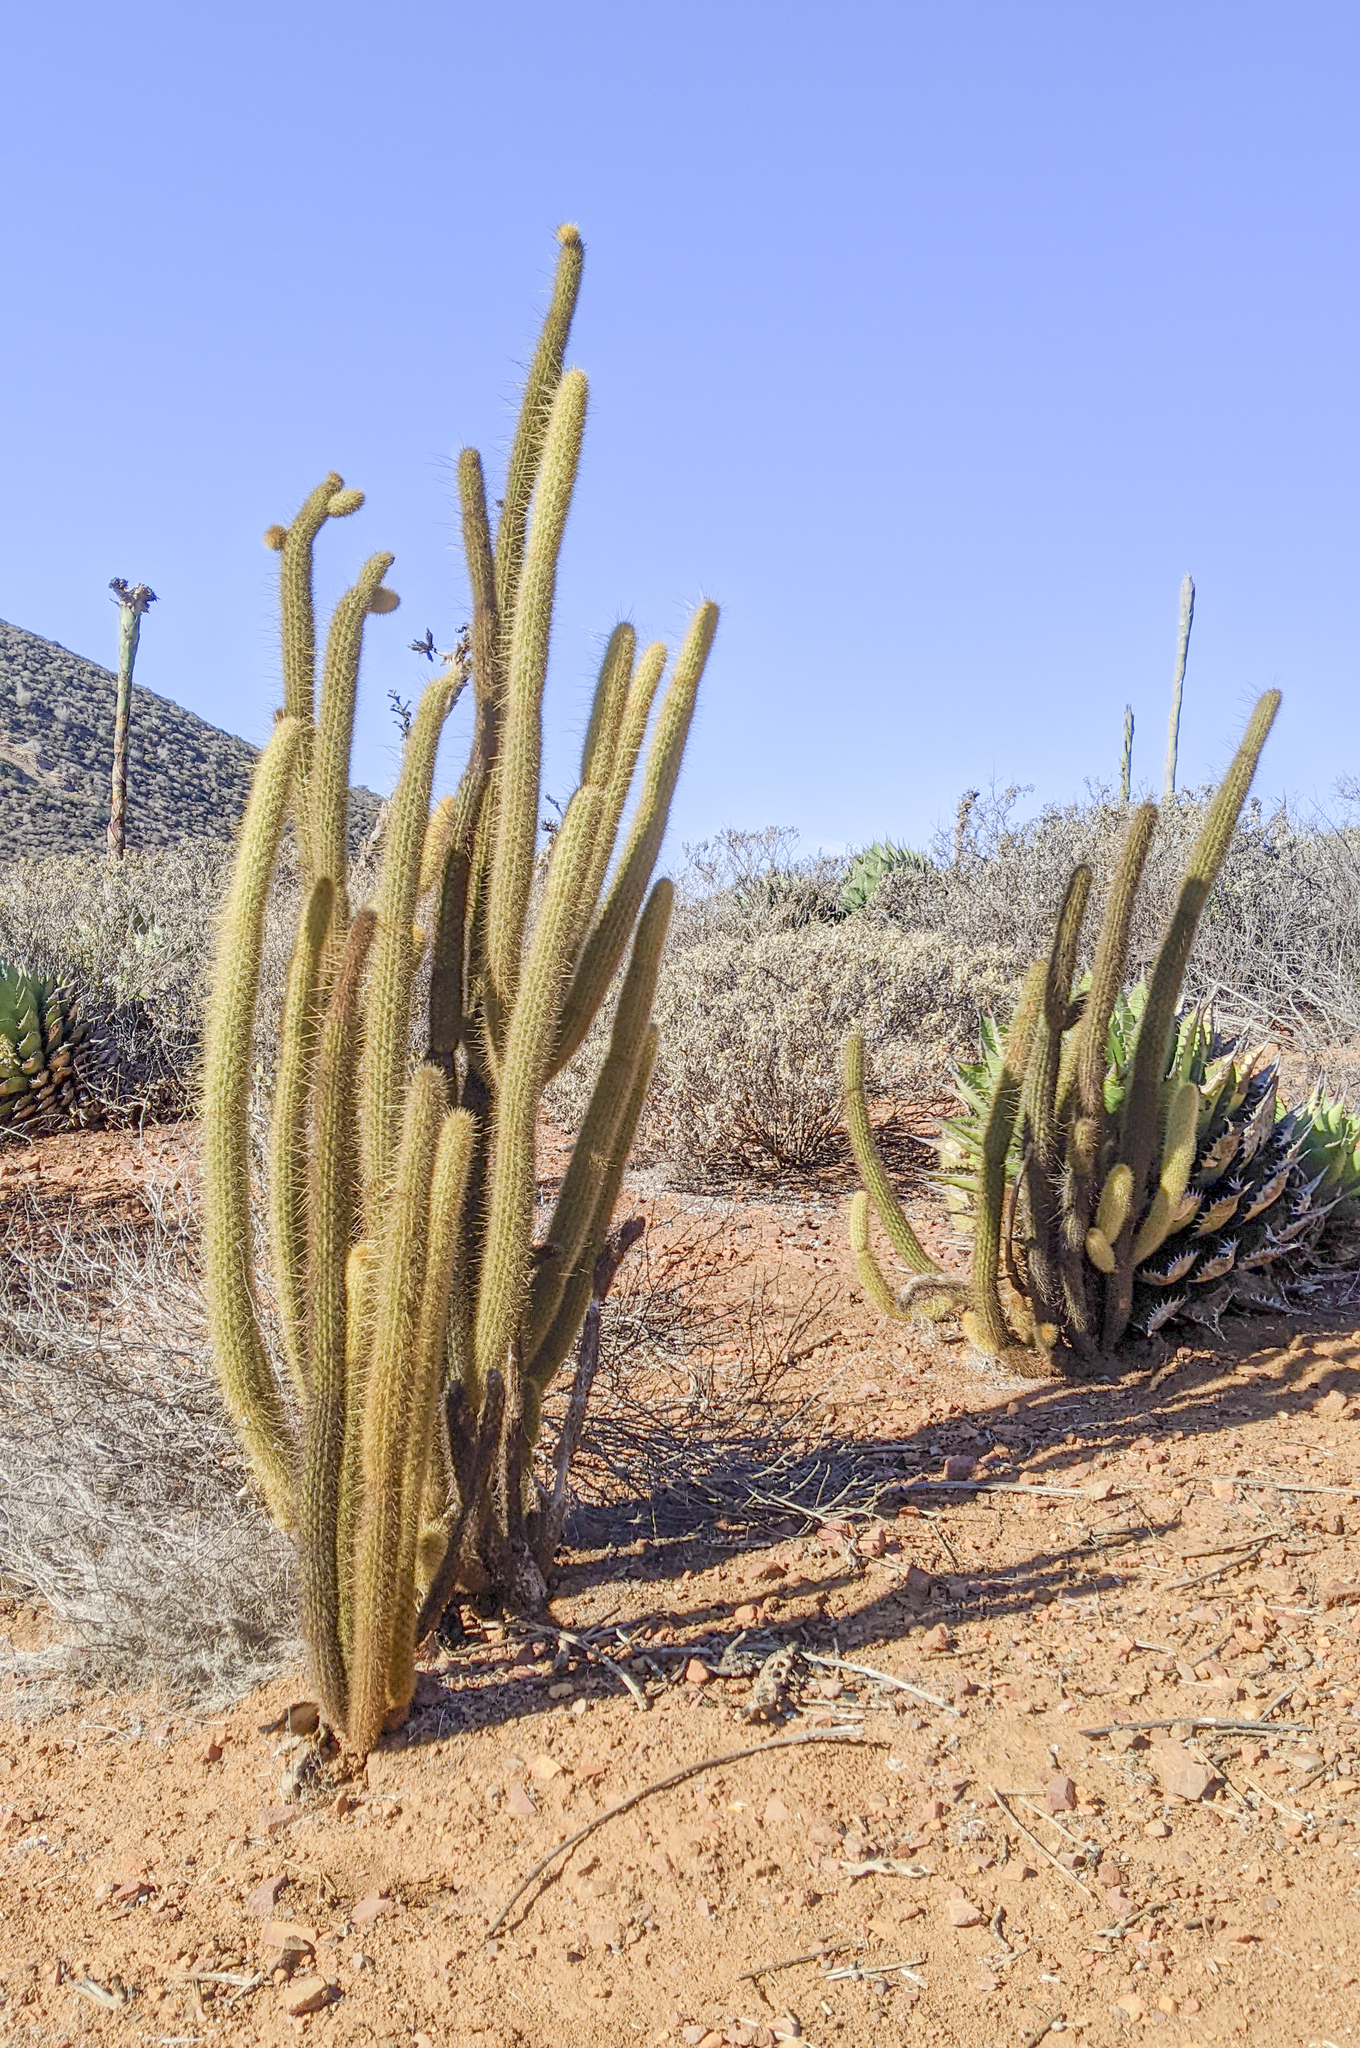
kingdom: Plantae
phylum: Tracheophyta
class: Magnoliopsida
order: Caryophyllales
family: Cactaceae
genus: Bergerocactus
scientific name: Bergerocactus emoryi
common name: Golden snakecactus
